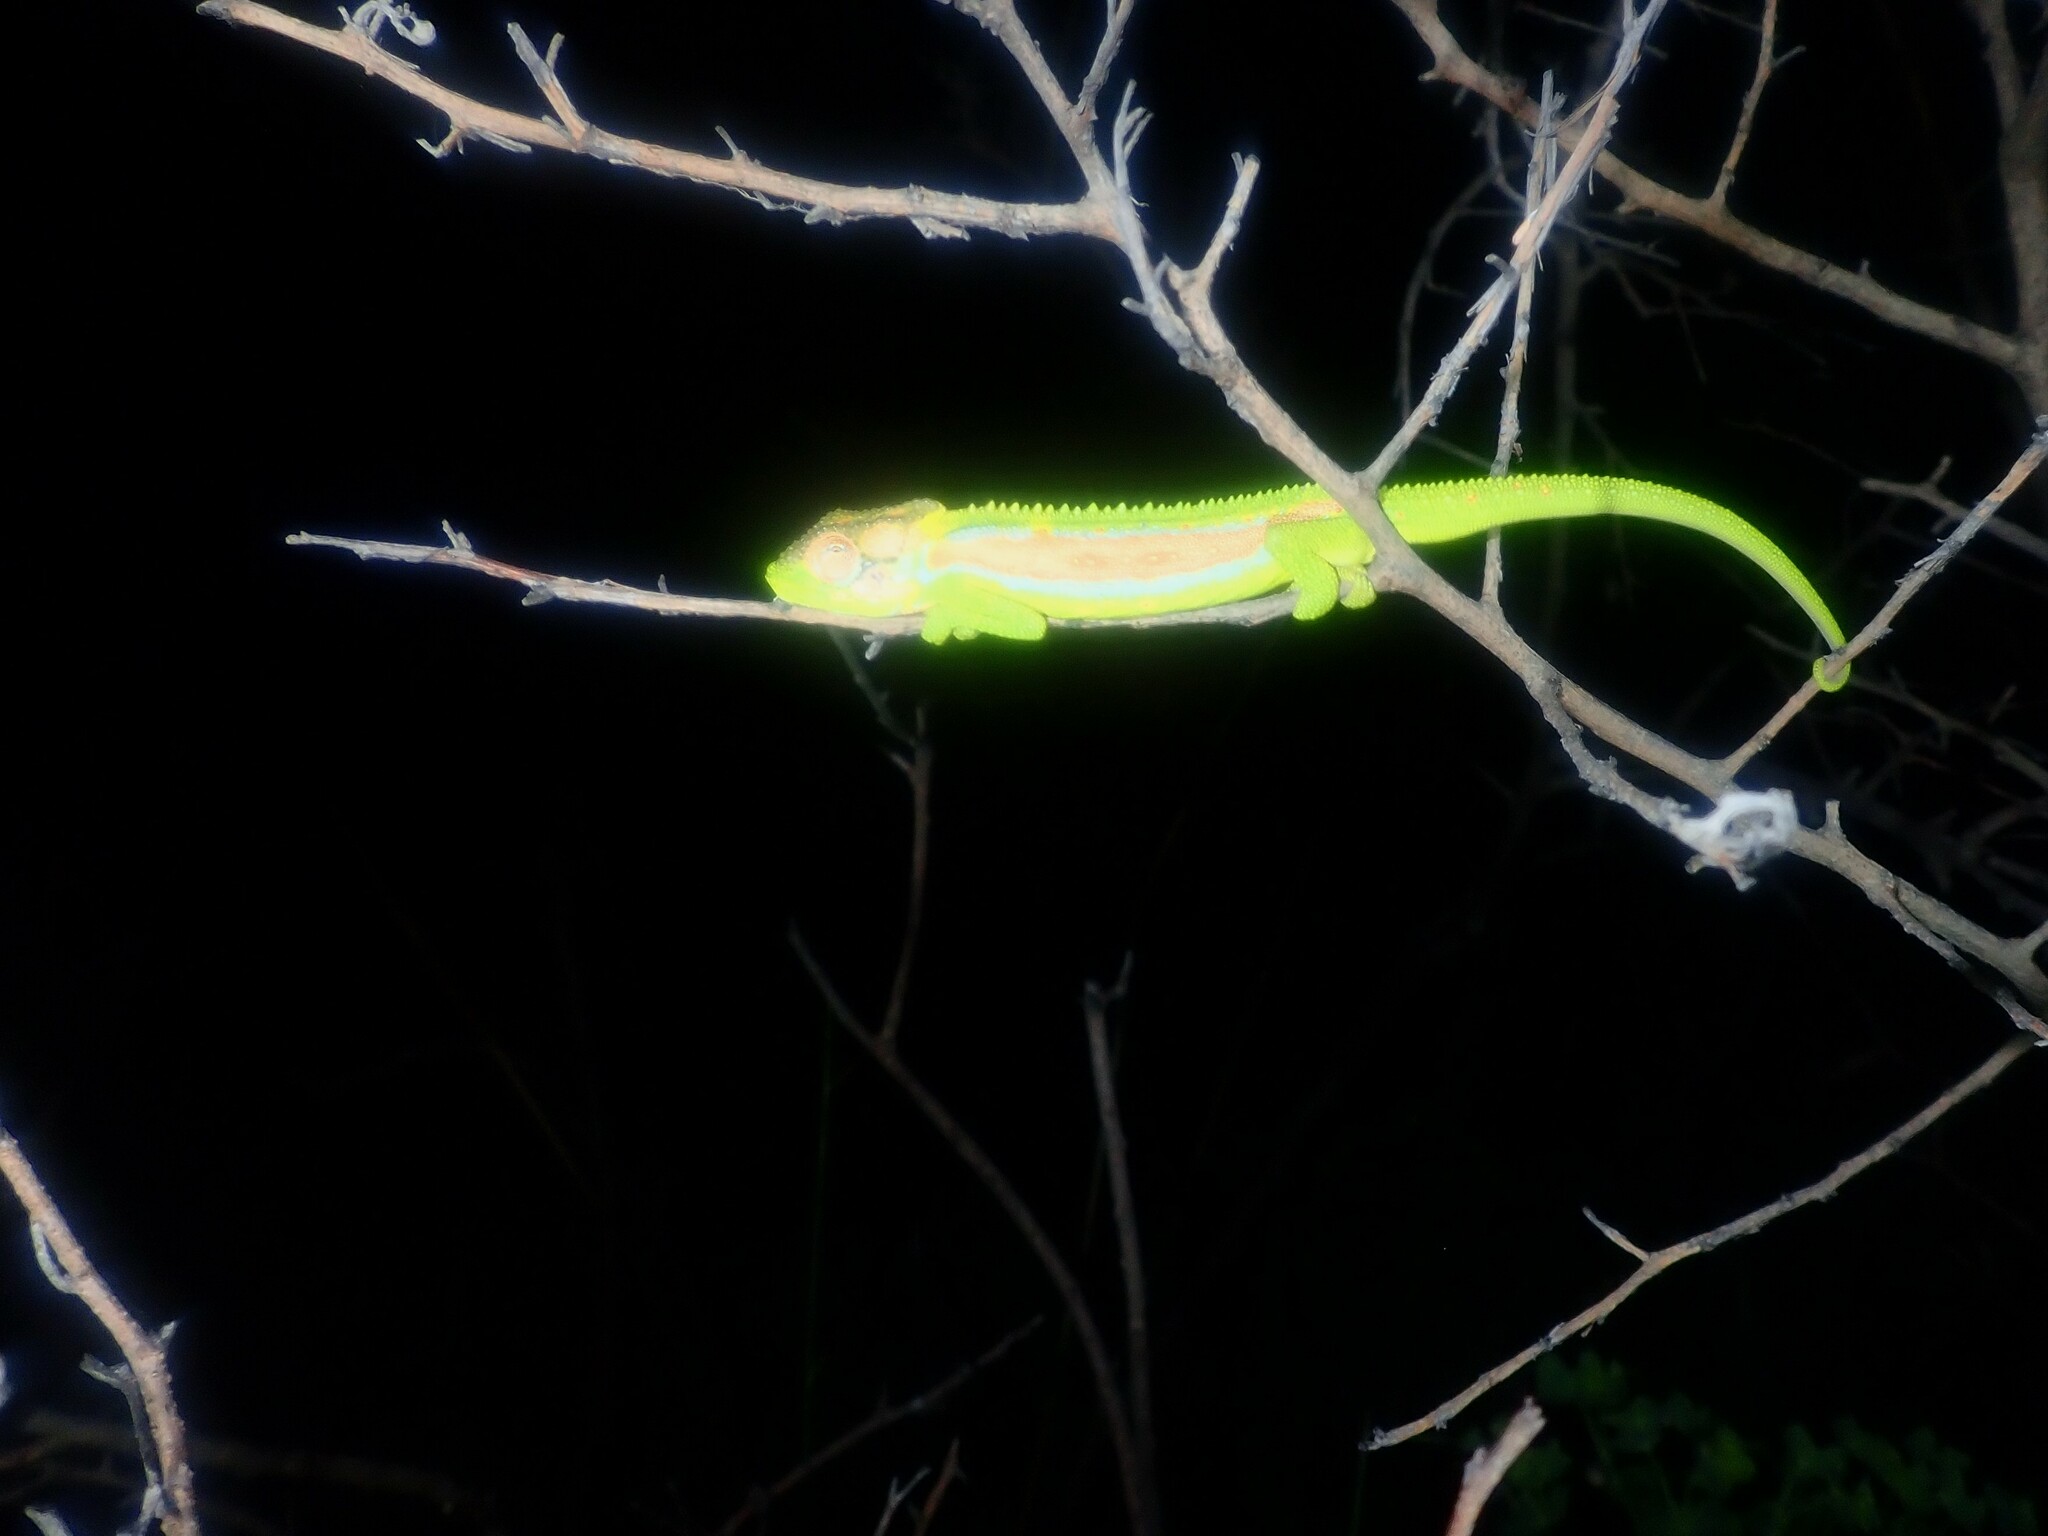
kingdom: Animalia
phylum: Chordata
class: Squamata
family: Chamaeleonidae
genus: Bradypodion
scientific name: Bradypodion pumilum
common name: Cape dwarf chameleon
